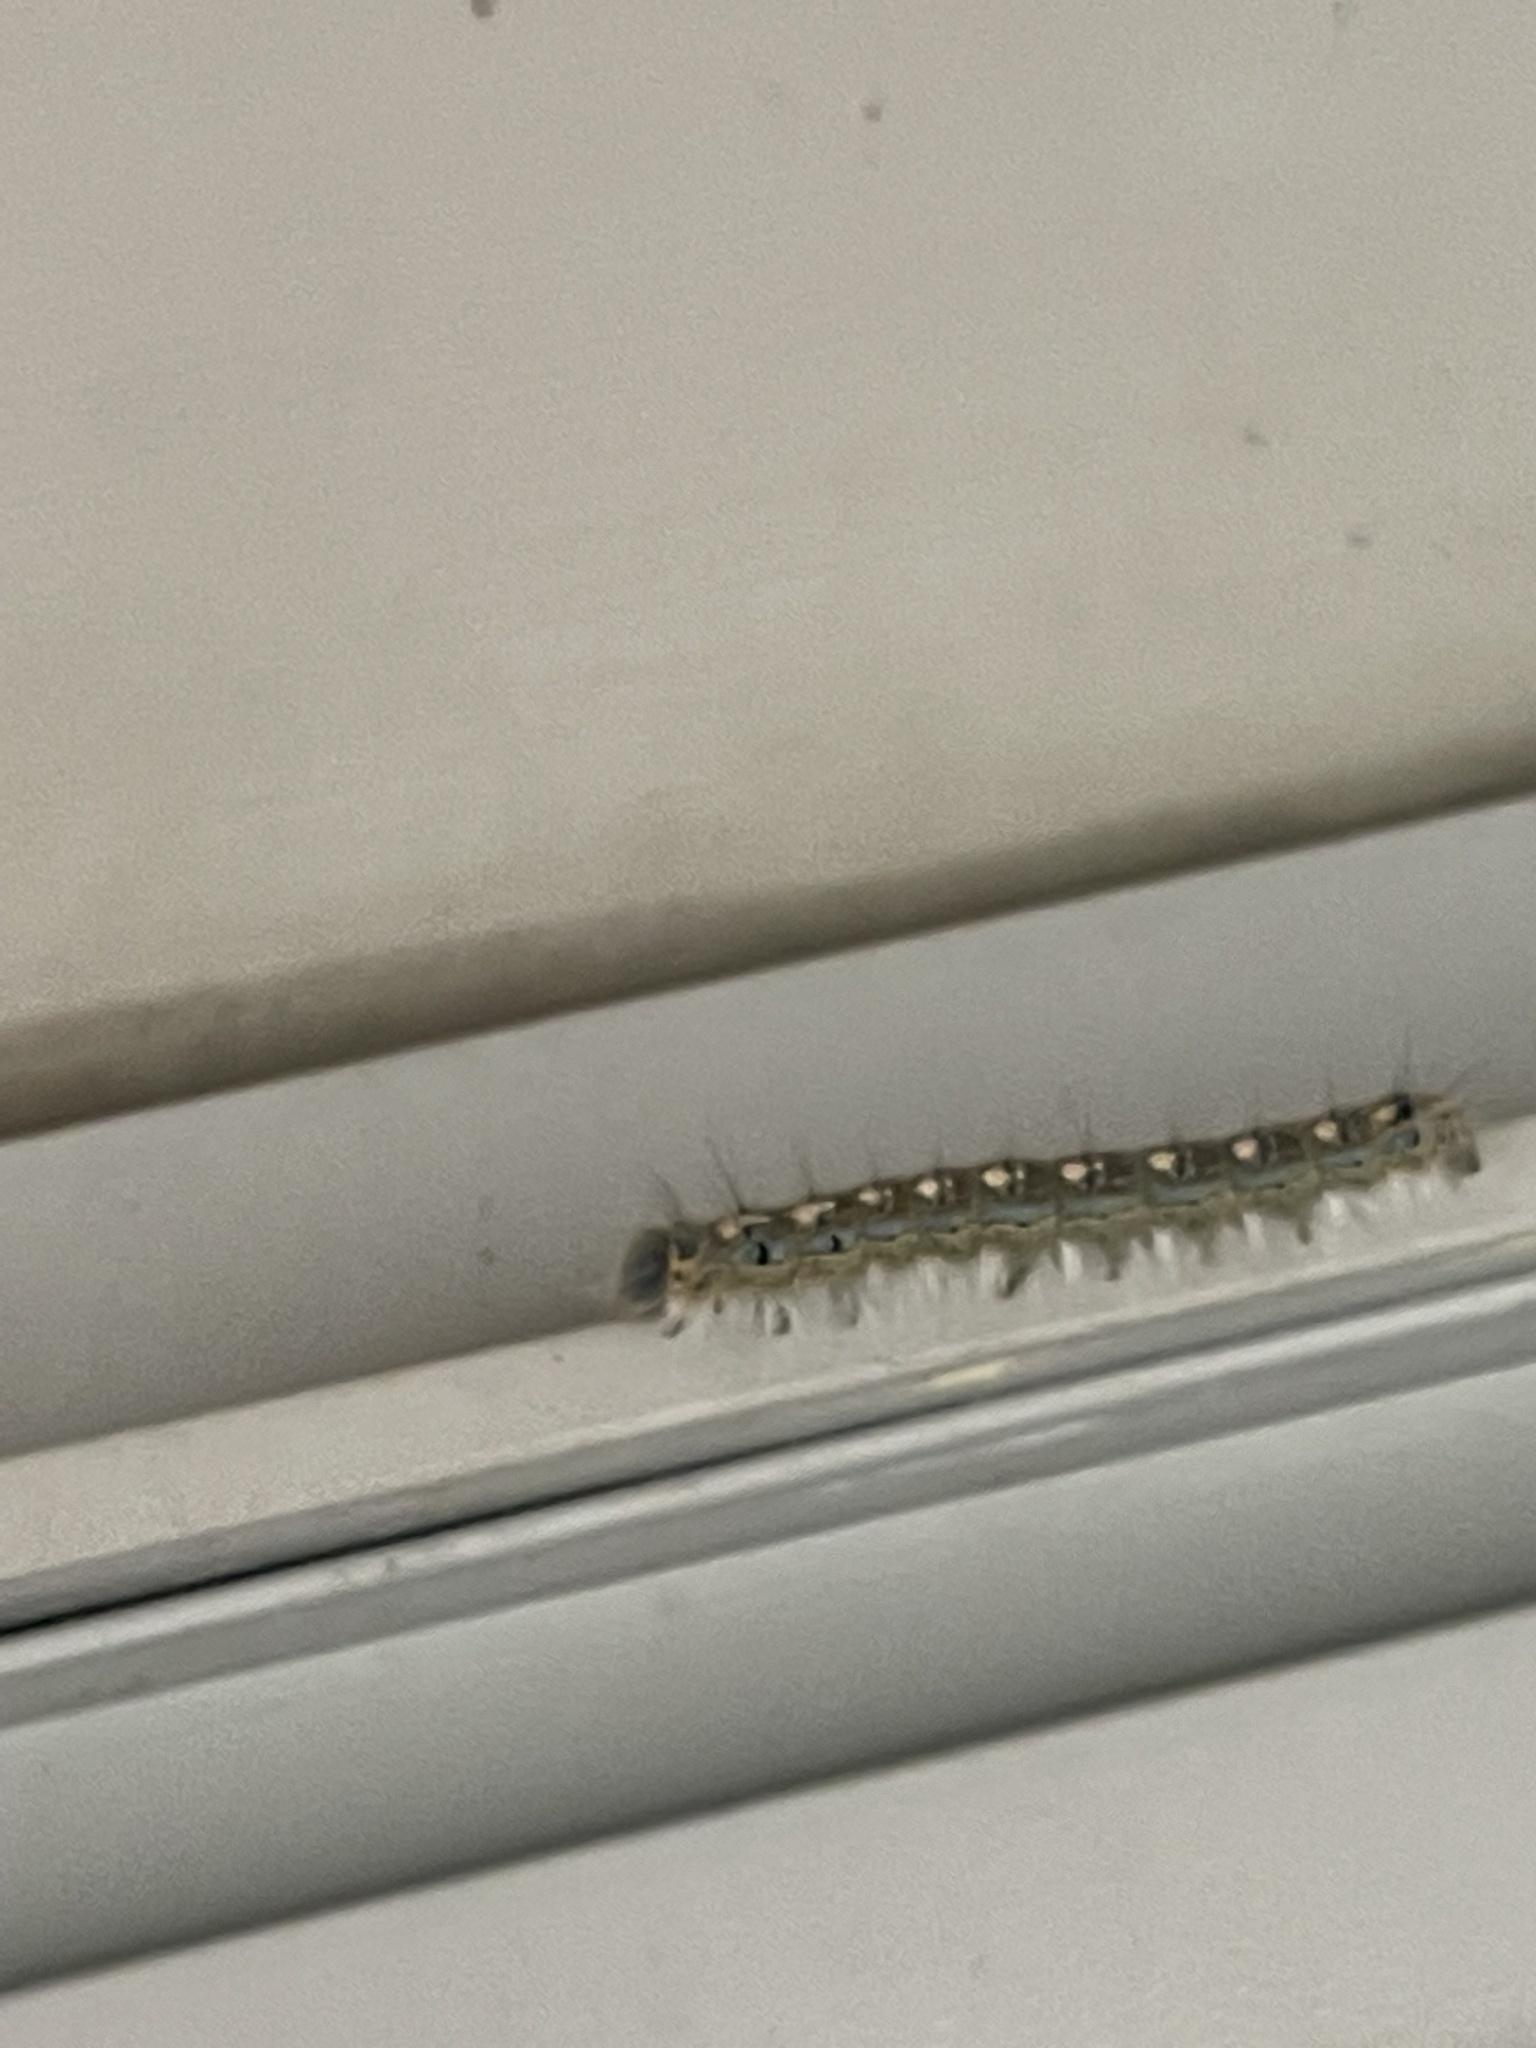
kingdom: Animalia
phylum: Arthropoda
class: Insecta
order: Lepidoptera
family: Lasiocampidae
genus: Malacosoma
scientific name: Malacosoma disstria
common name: Forest tent caterpillar
